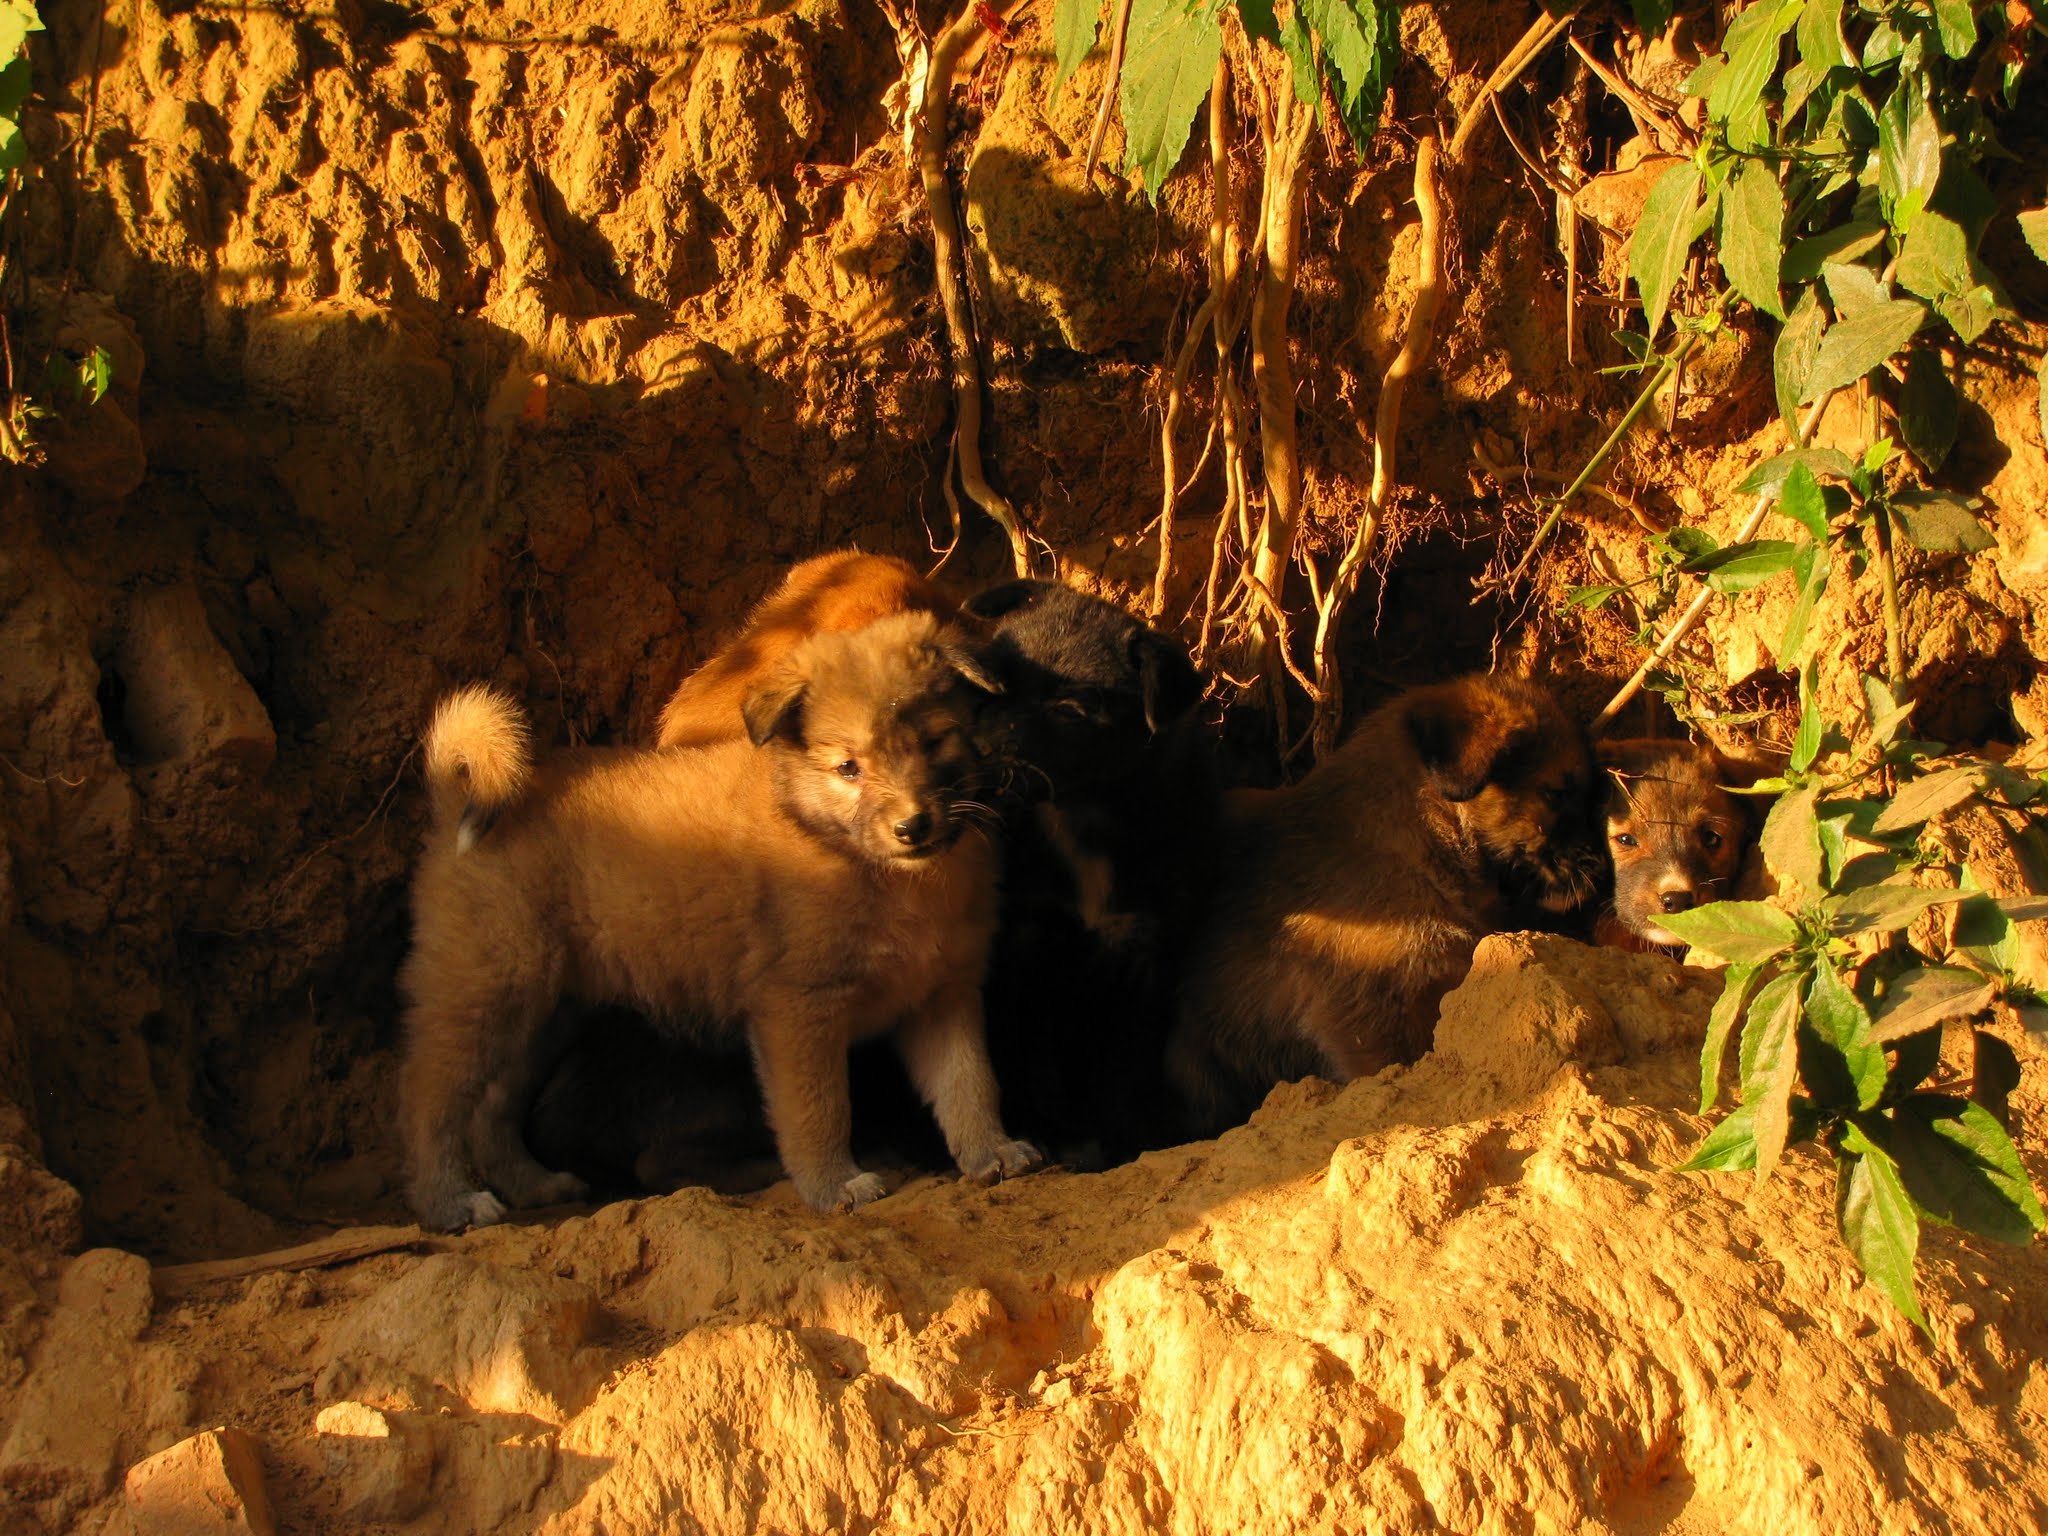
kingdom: Animalia
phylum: Chordata
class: Mammalia
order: Carnivora
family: Canidae
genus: Canis
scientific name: Canis lupus
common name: Gray wolf
